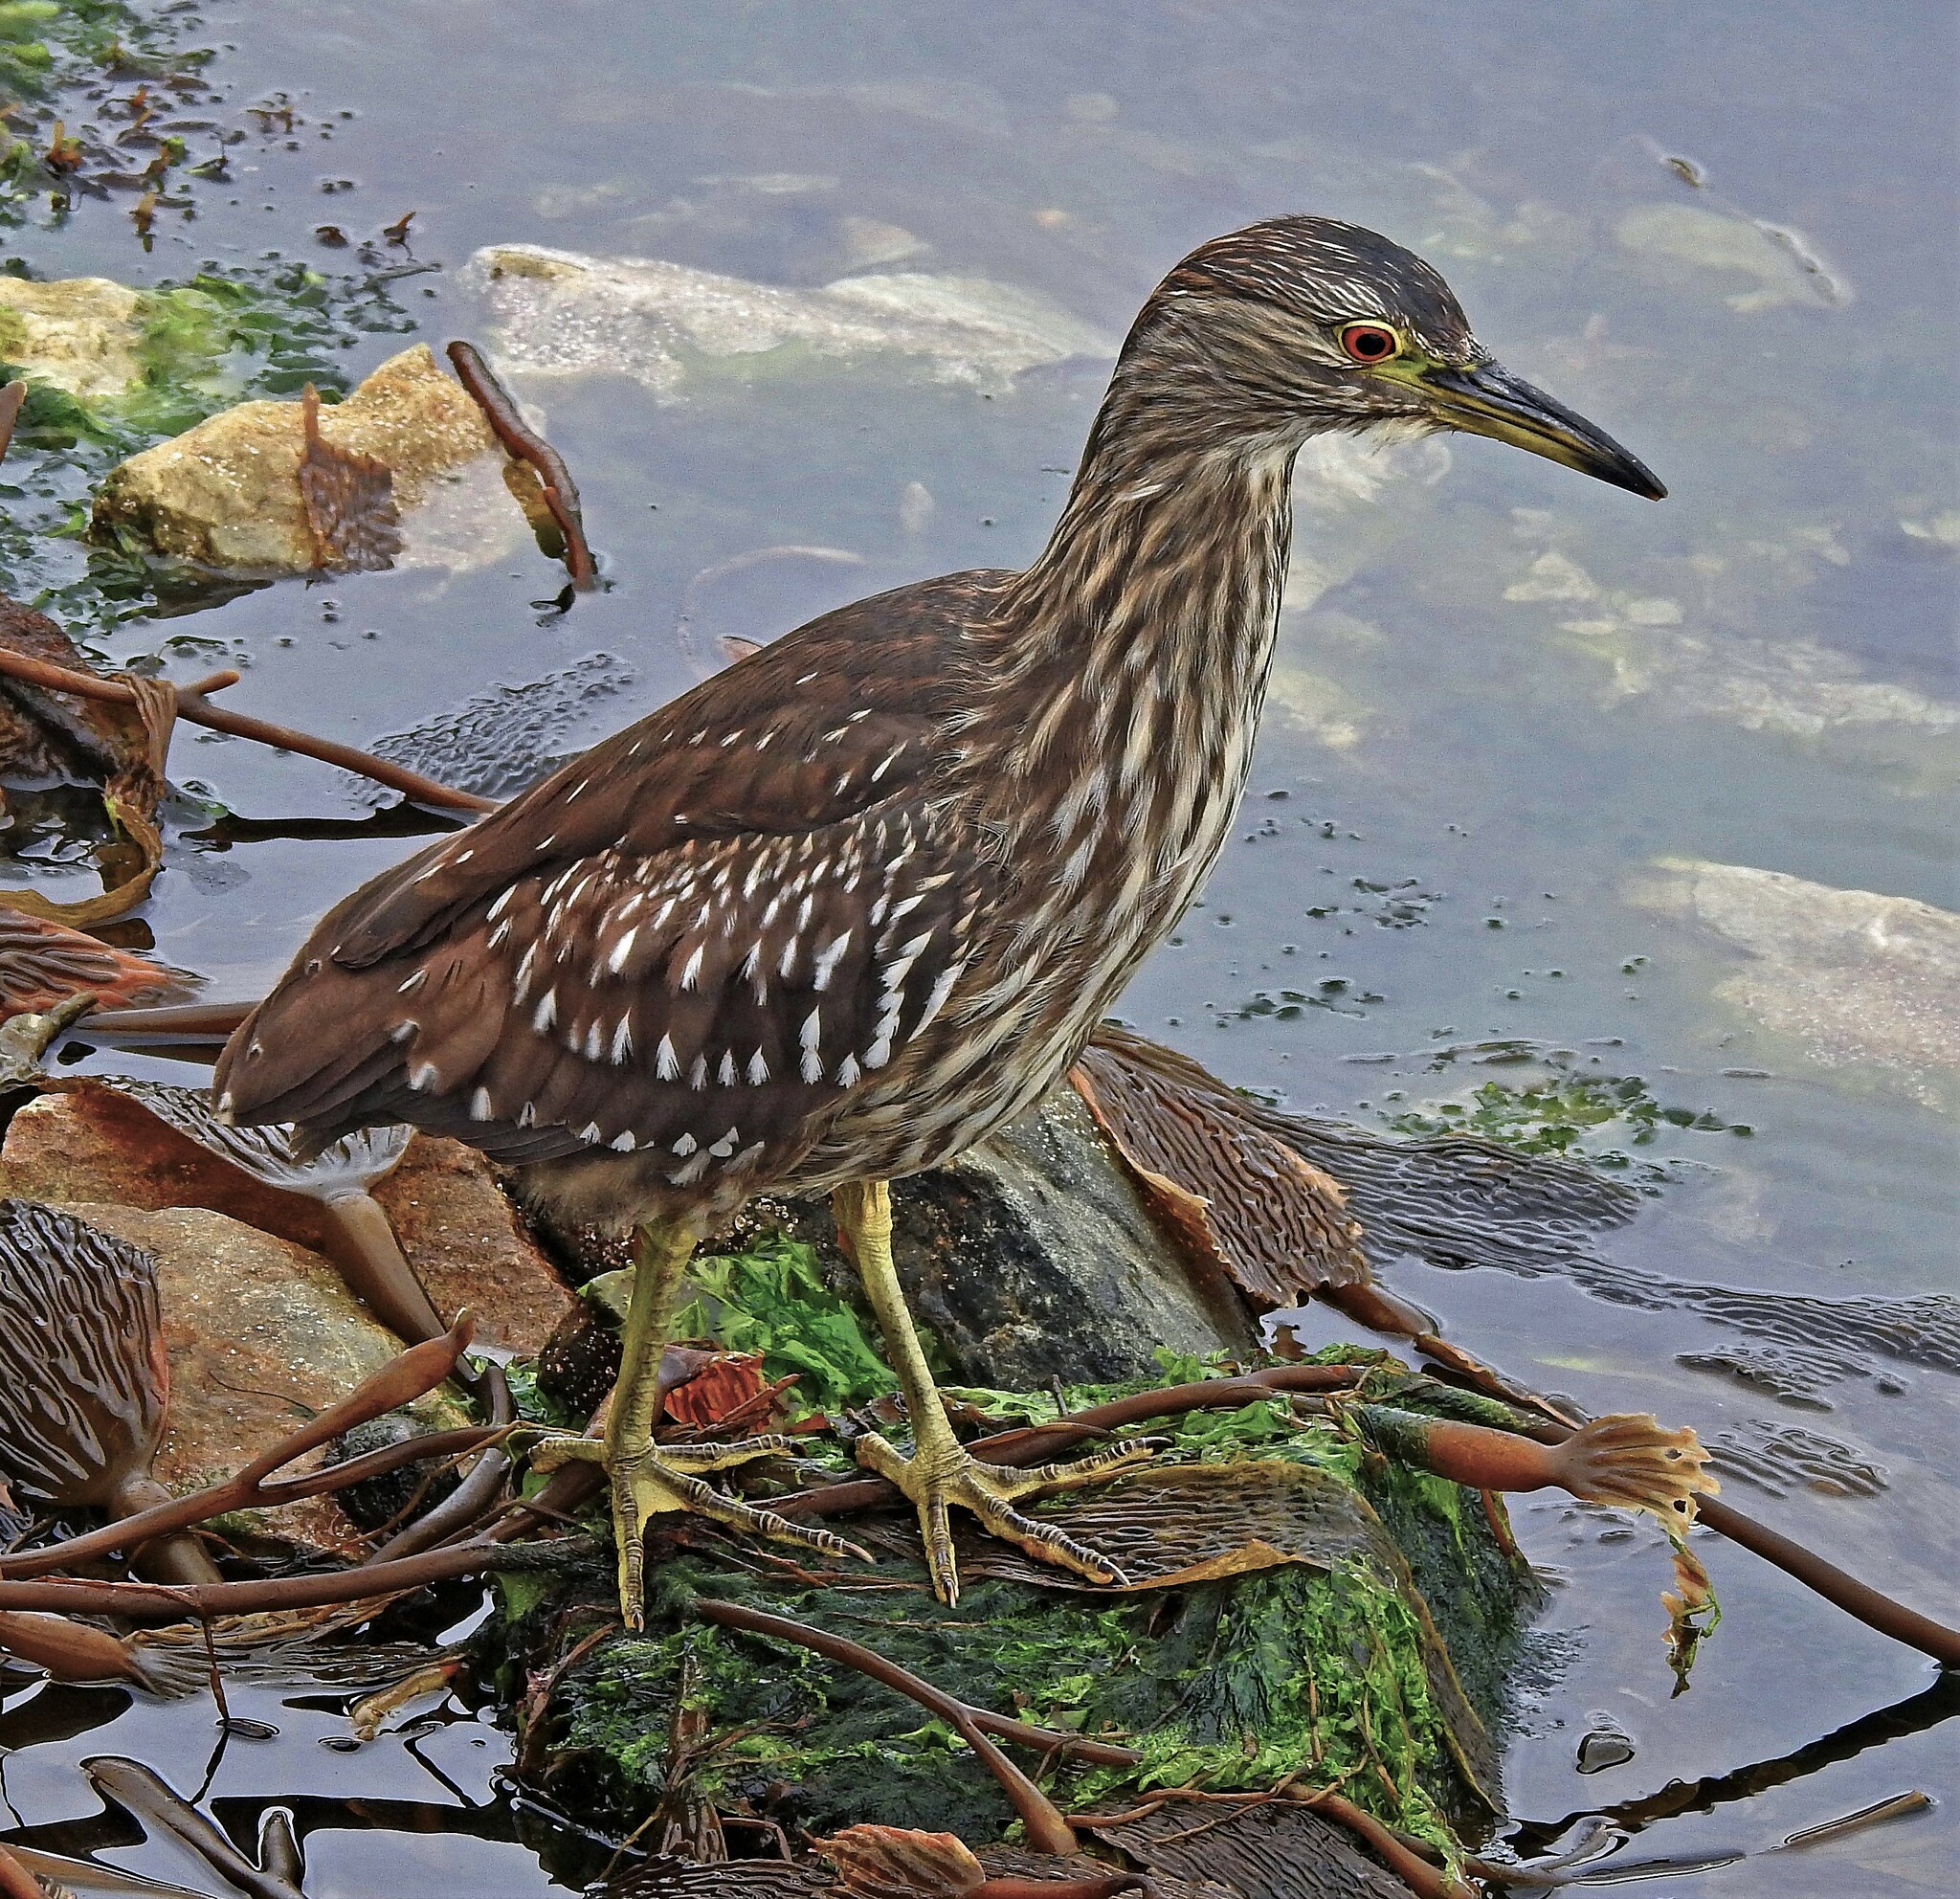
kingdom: Animalia
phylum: Chordata
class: Aves
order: Pelecaniformes
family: Ardeidae
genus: Nycticorax
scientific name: Nycticorax nycticorax
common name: Black-crowned night heron
